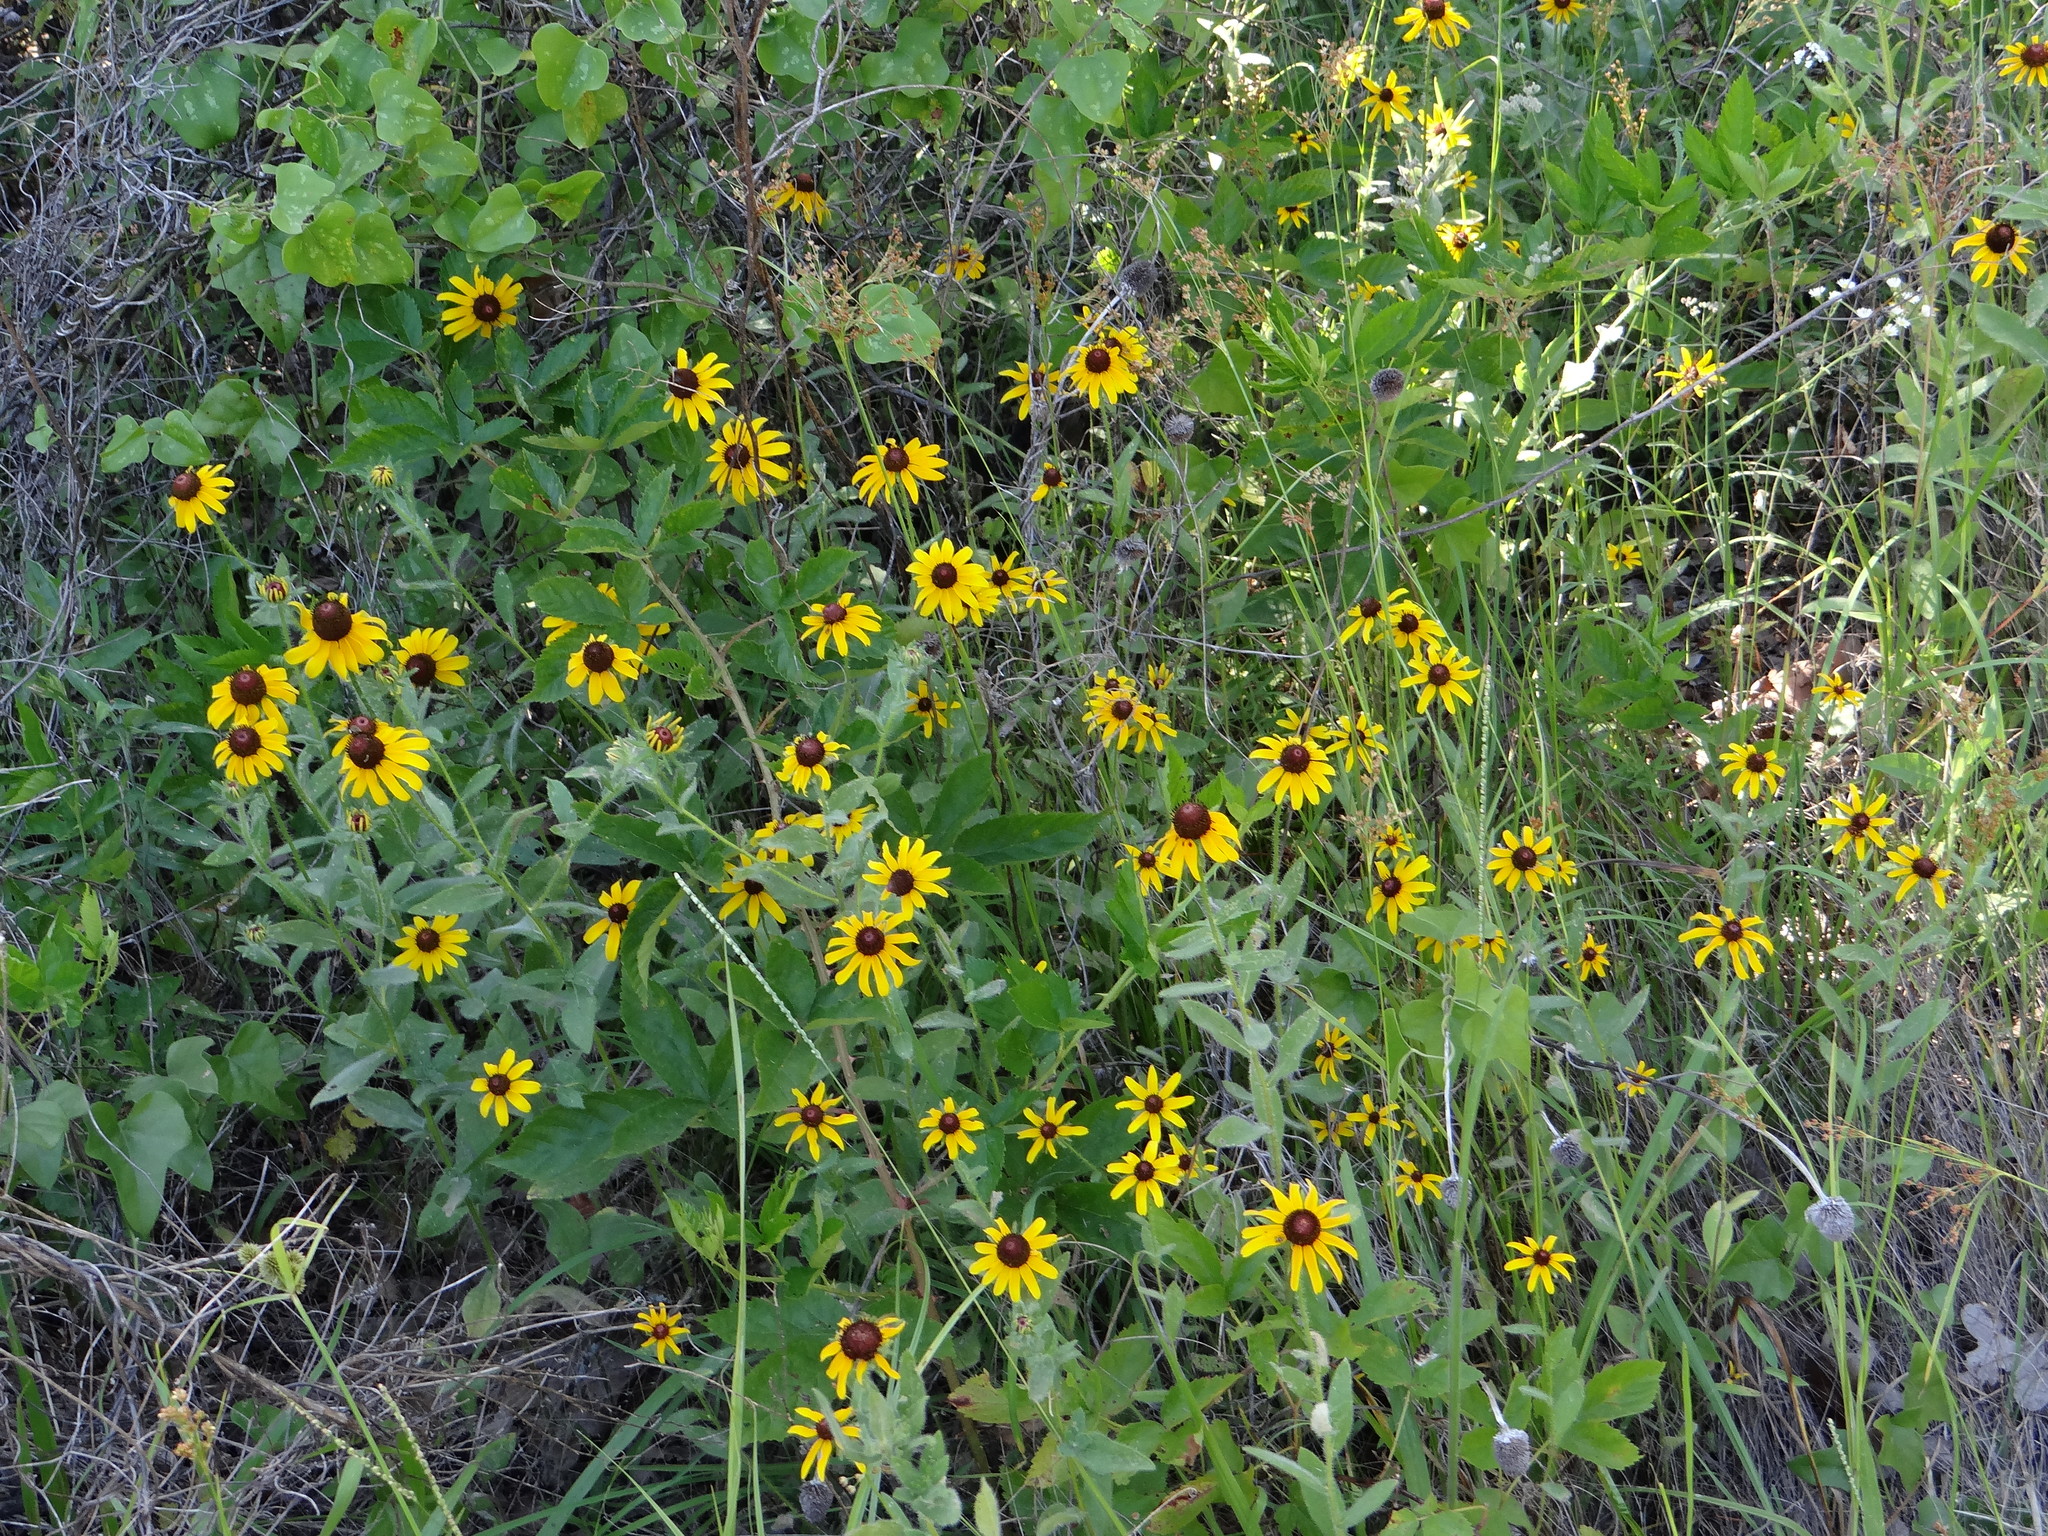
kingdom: Plantae
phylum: Tracheophyta
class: Magnoliopsida
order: Asterales
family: Asteraceae
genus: Rudbeckia
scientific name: Rudbeckia hirta
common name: Black-eyed-susan
